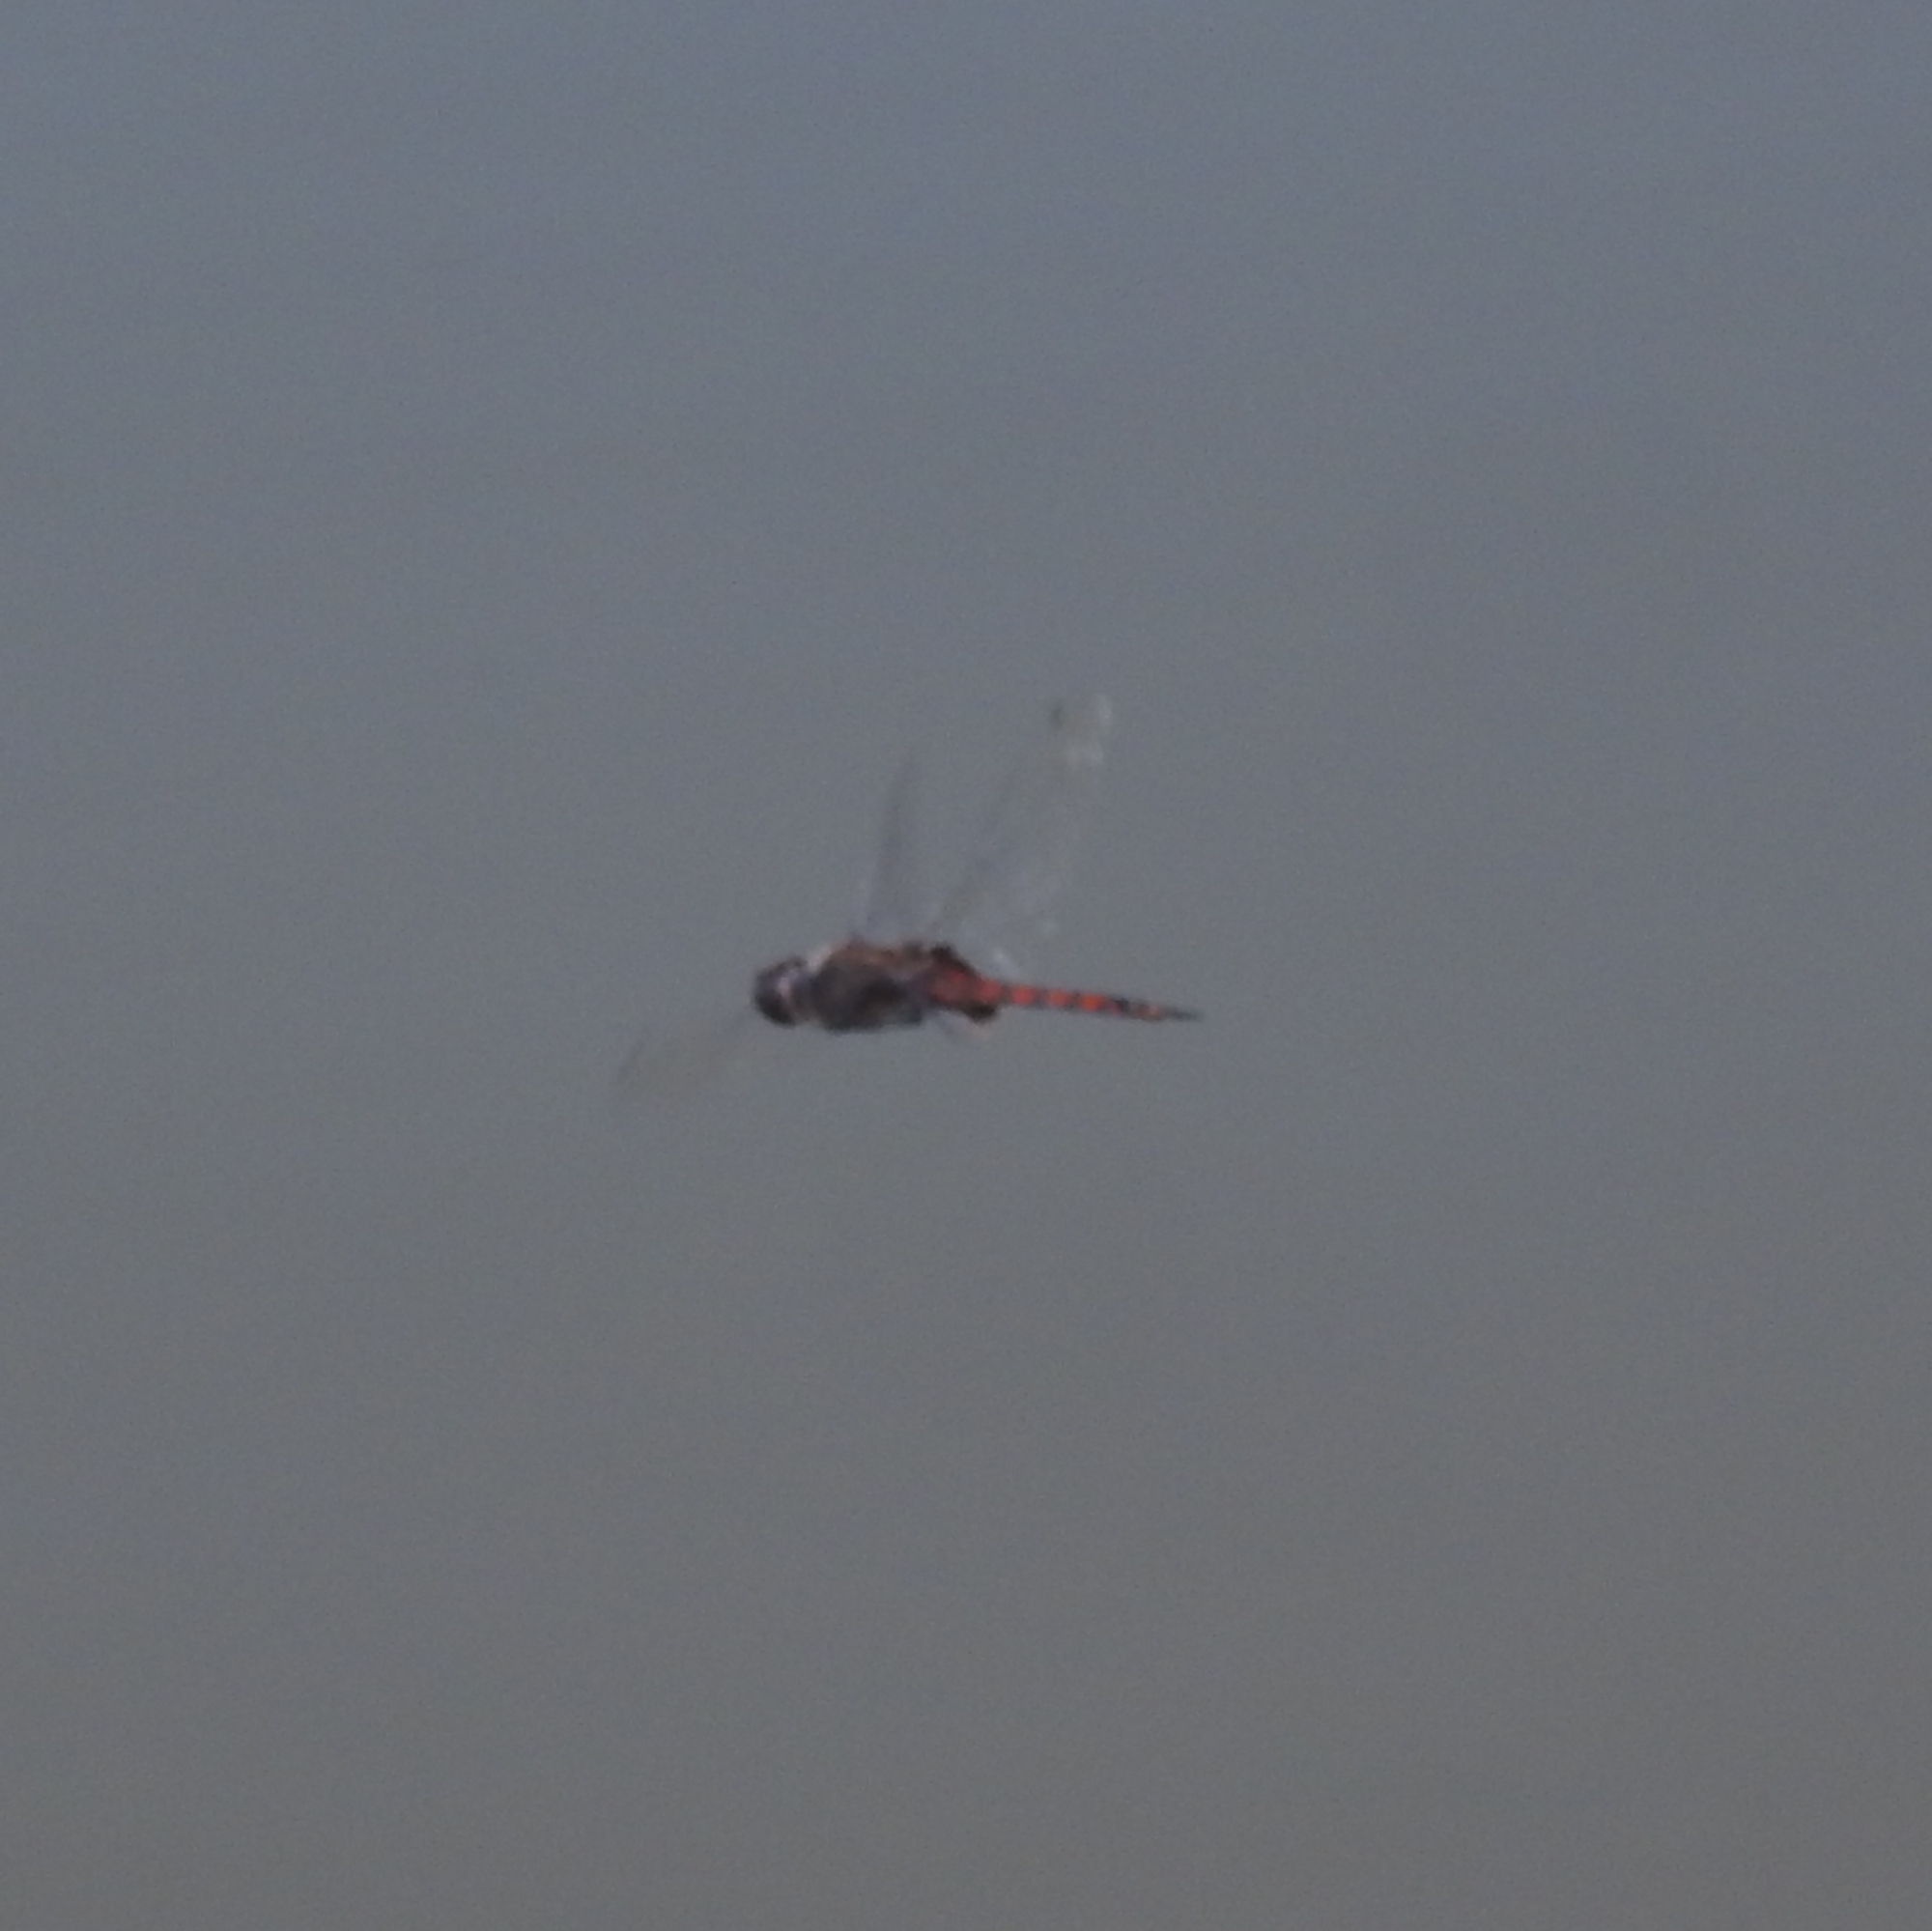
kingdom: Animalia
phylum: Arthropoda
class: Insecta
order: Odonata
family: Libellulidae
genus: Tramea
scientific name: Tramea limbata
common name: Ferruginous glider
